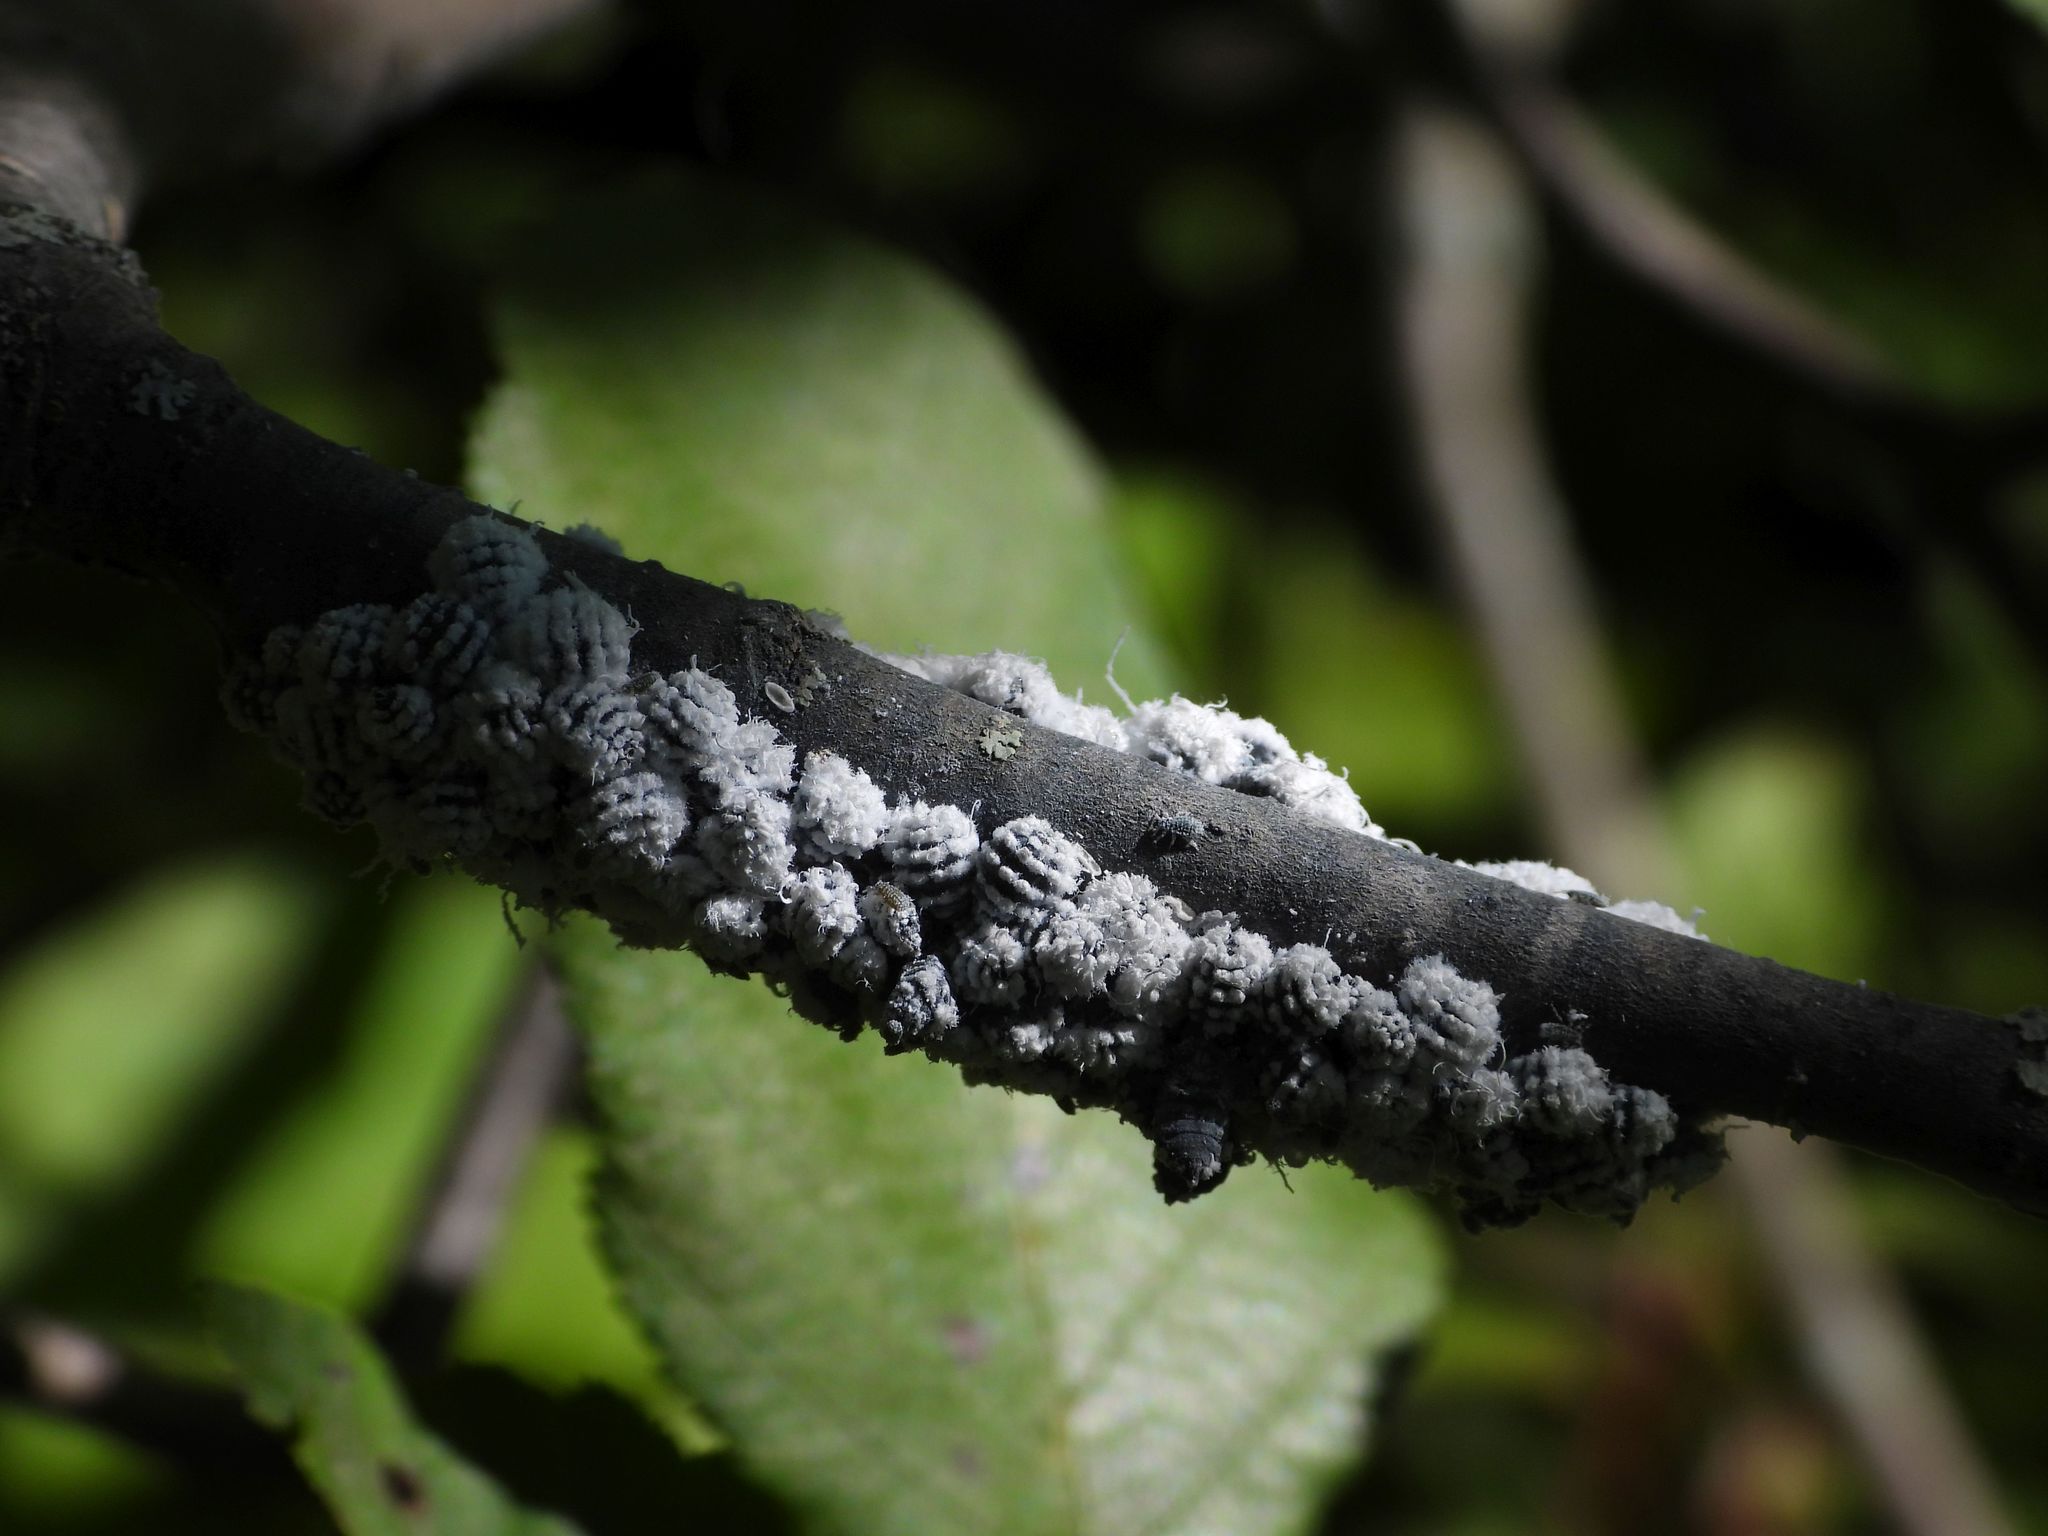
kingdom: Animalia
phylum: Arthropoda
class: Insecta
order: Hemiptera
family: Aphididae
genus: Prociphilus
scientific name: Prociphilus tessellatus
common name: Woolly alder aphid
